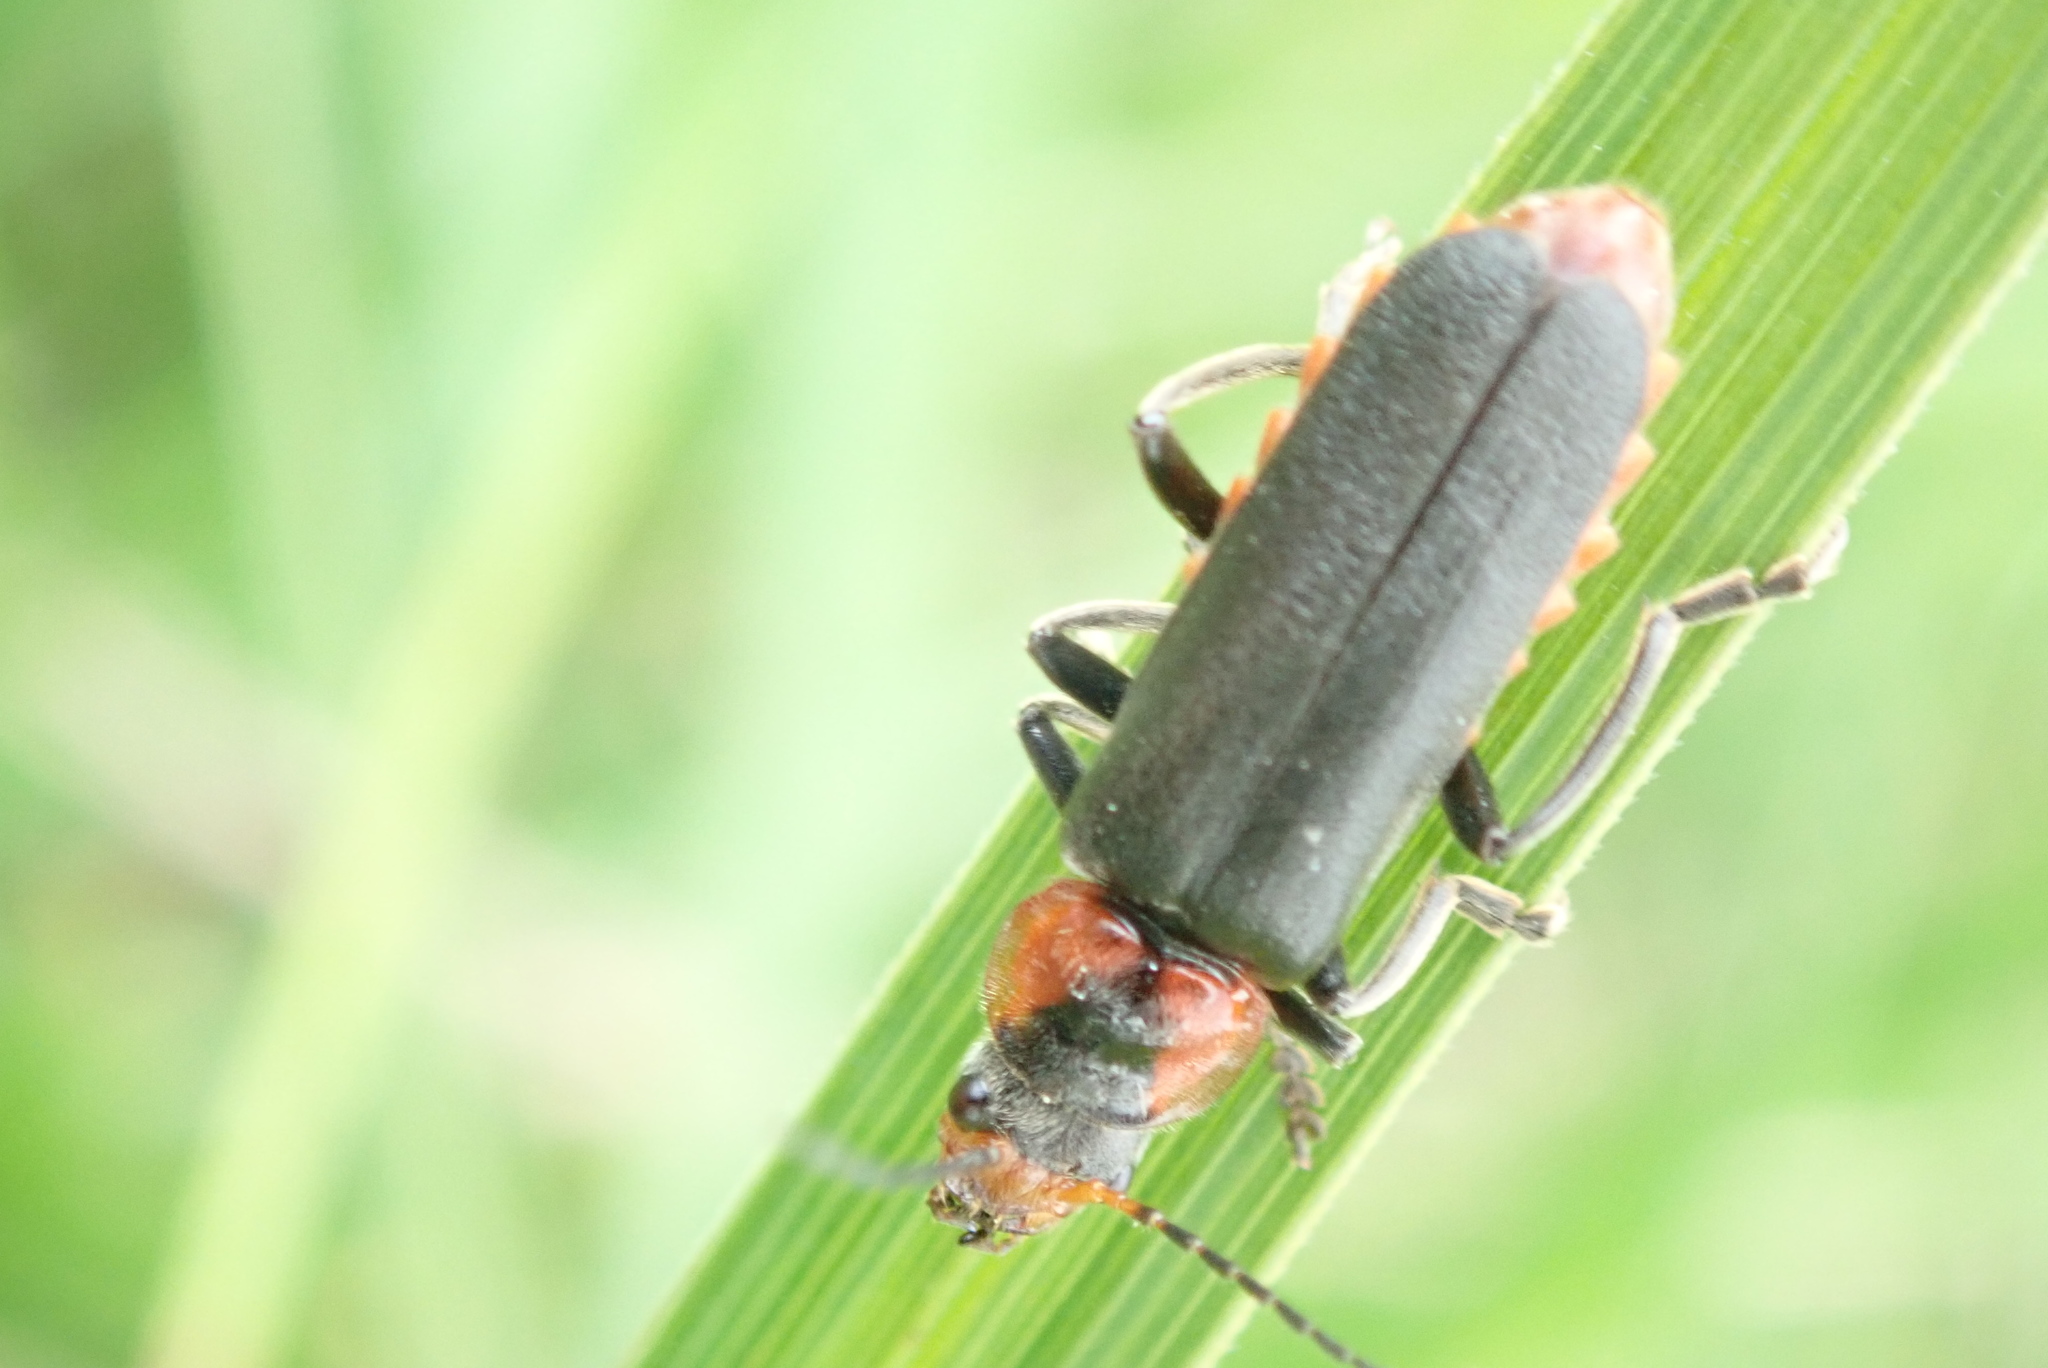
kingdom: Animalia
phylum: Arthropoda
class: Insecta
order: Coleoptera
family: Cantharidae
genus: Cantharis
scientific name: Cantharis fusca
